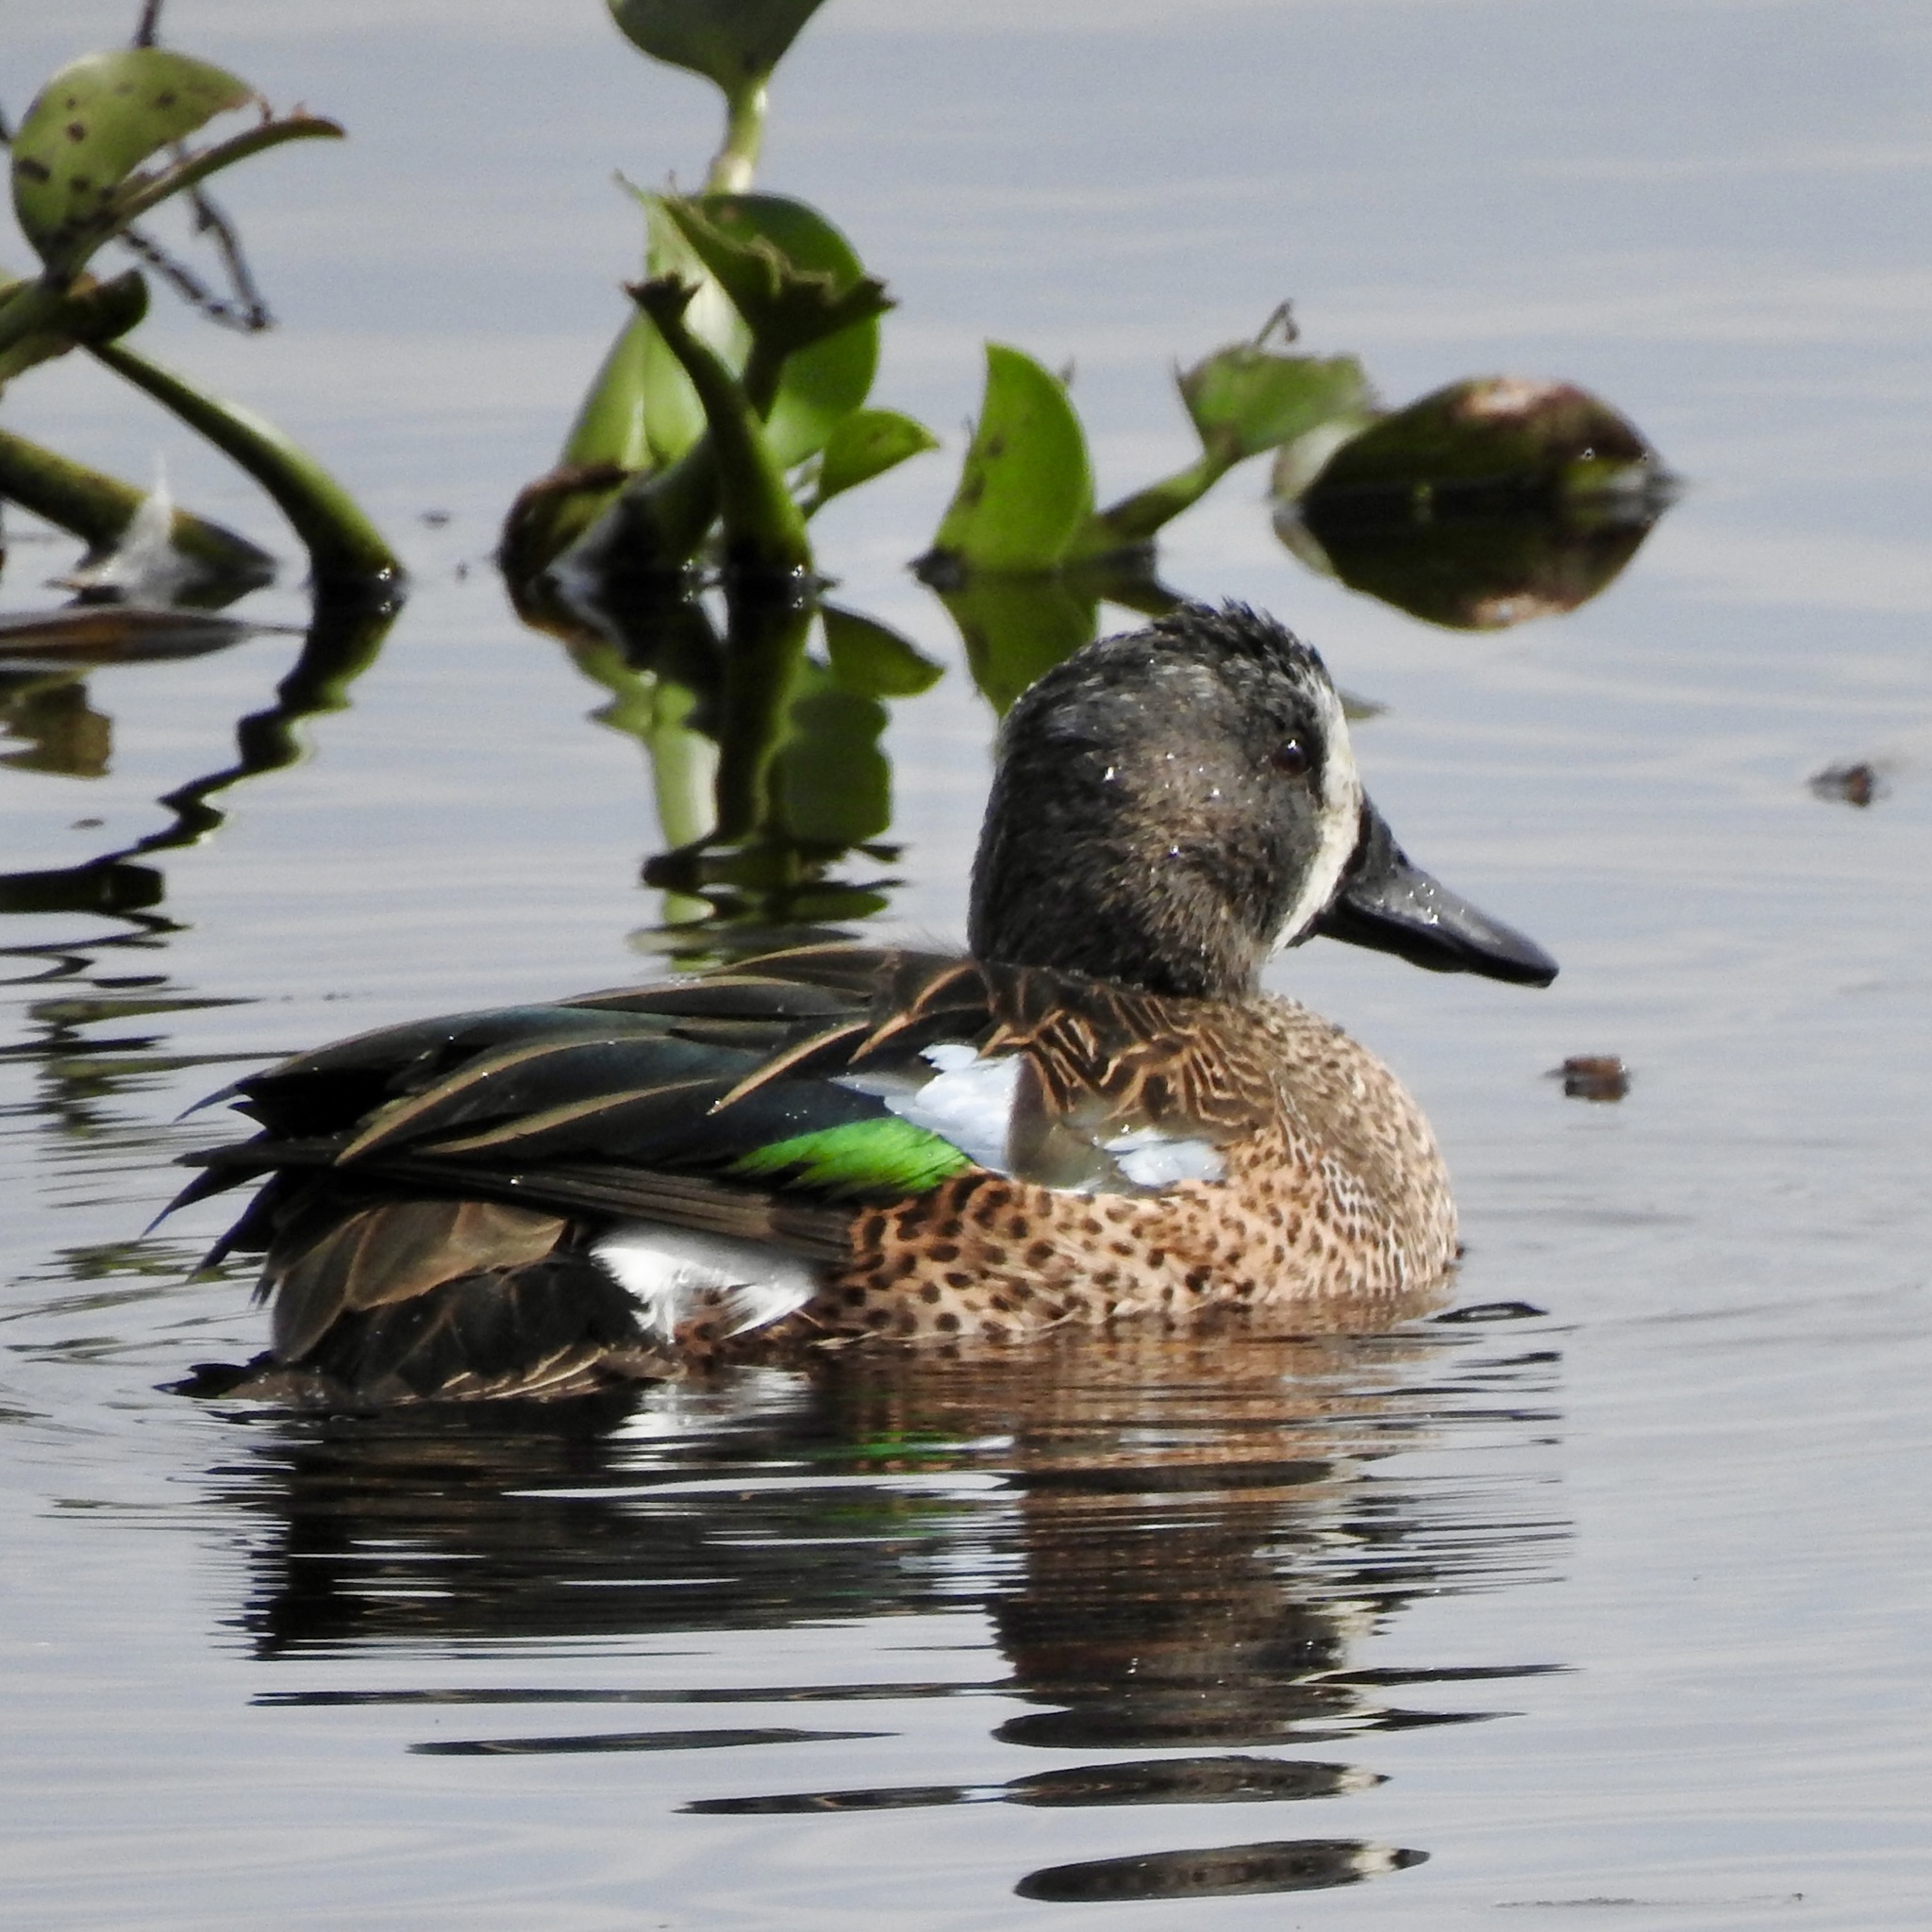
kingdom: Animalia
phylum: Chordata
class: Aves
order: Anseriformes
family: Anatidae
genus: Spatula
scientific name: Spatula discors
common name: Blue-winged teal
